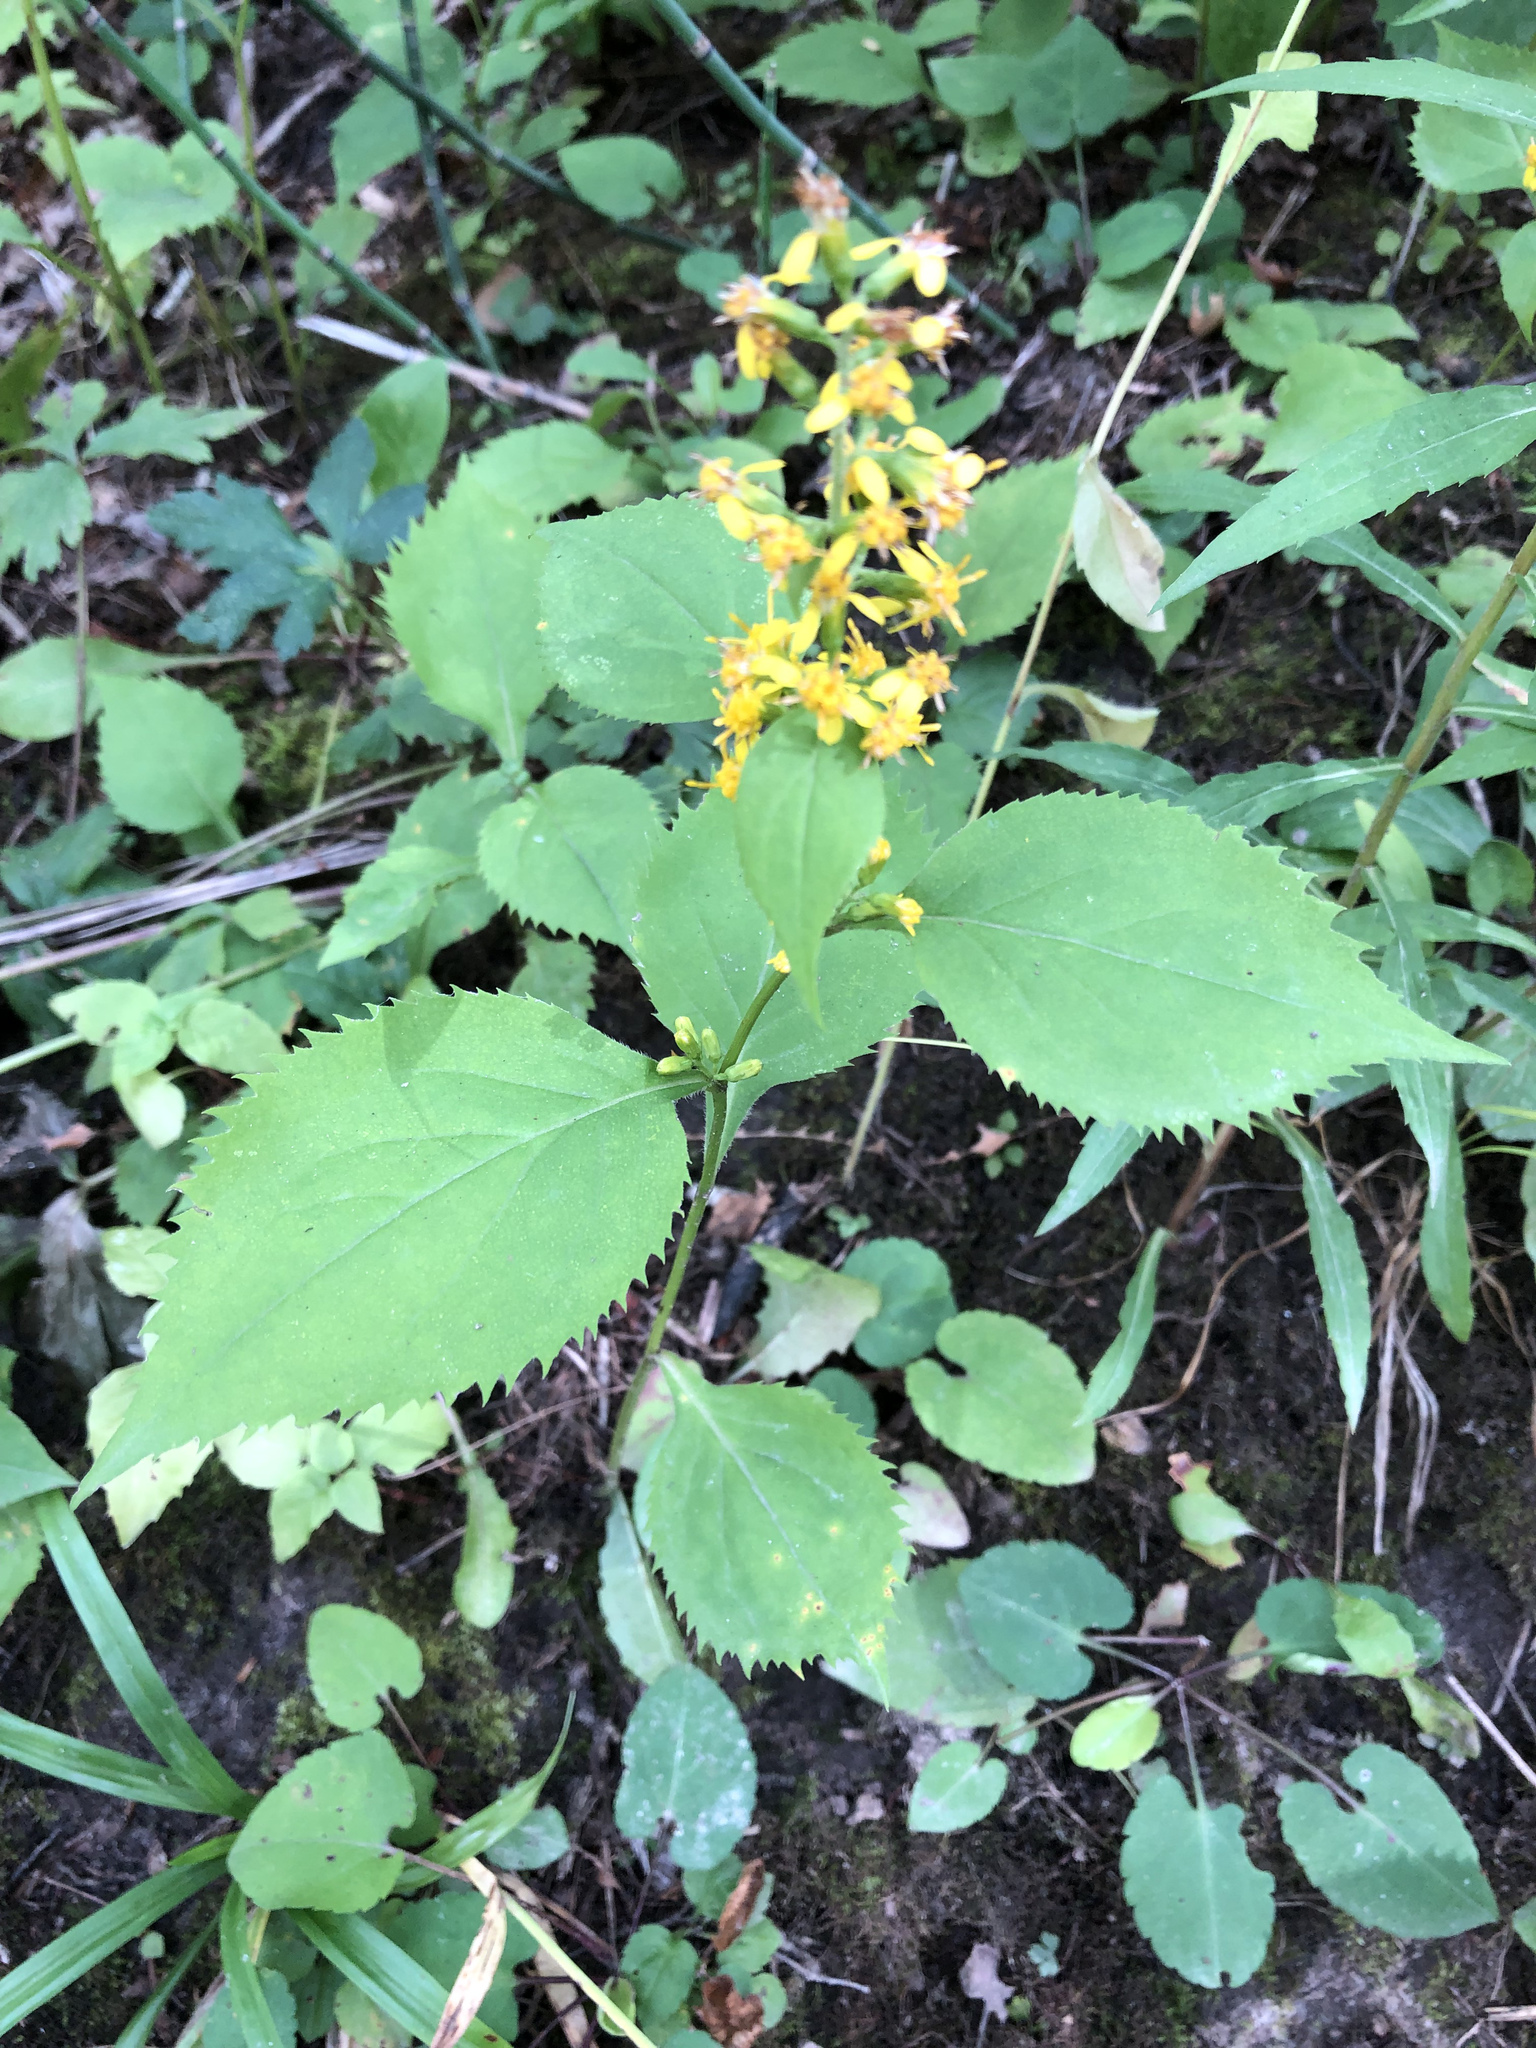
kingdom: Plantae
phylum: Tracheophyta
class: Magnoliopsida
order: Asterales
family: Asteraceae
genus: Solidago
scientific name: Solidago flexicaulis
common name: Zig-zag goldenrod
